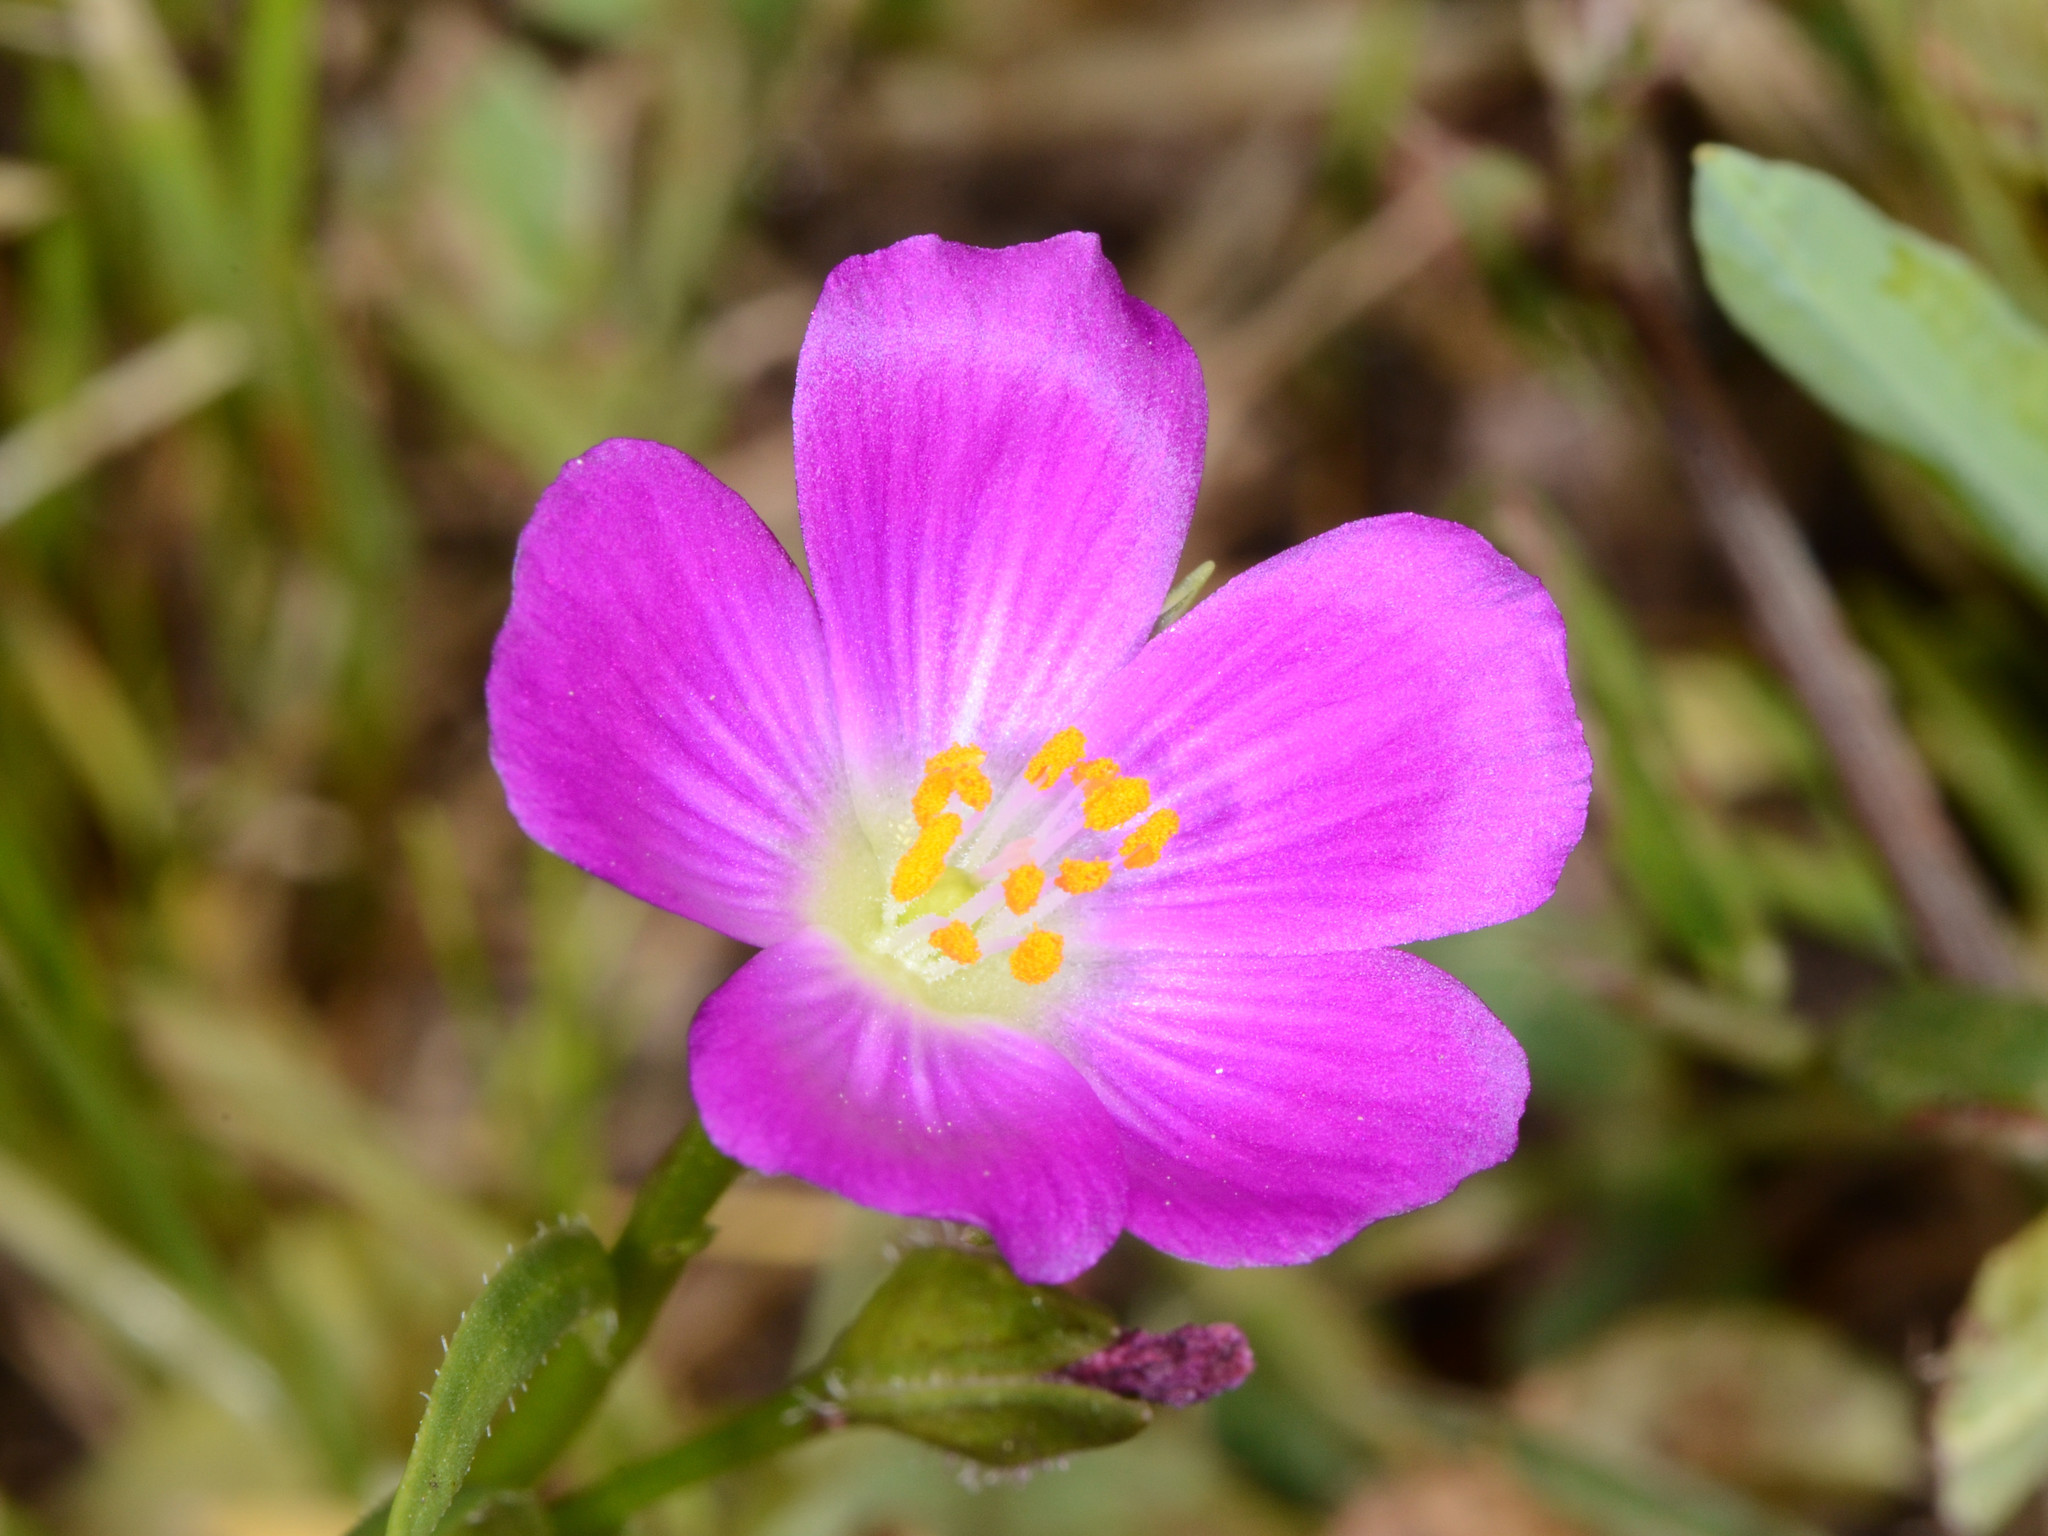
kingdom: Plantae
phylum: Tracheophyta
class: Magnoliopsida
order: Caryophyllales
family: Montiaceae
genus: Calandrinia
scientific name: Calandrinia menziesii
